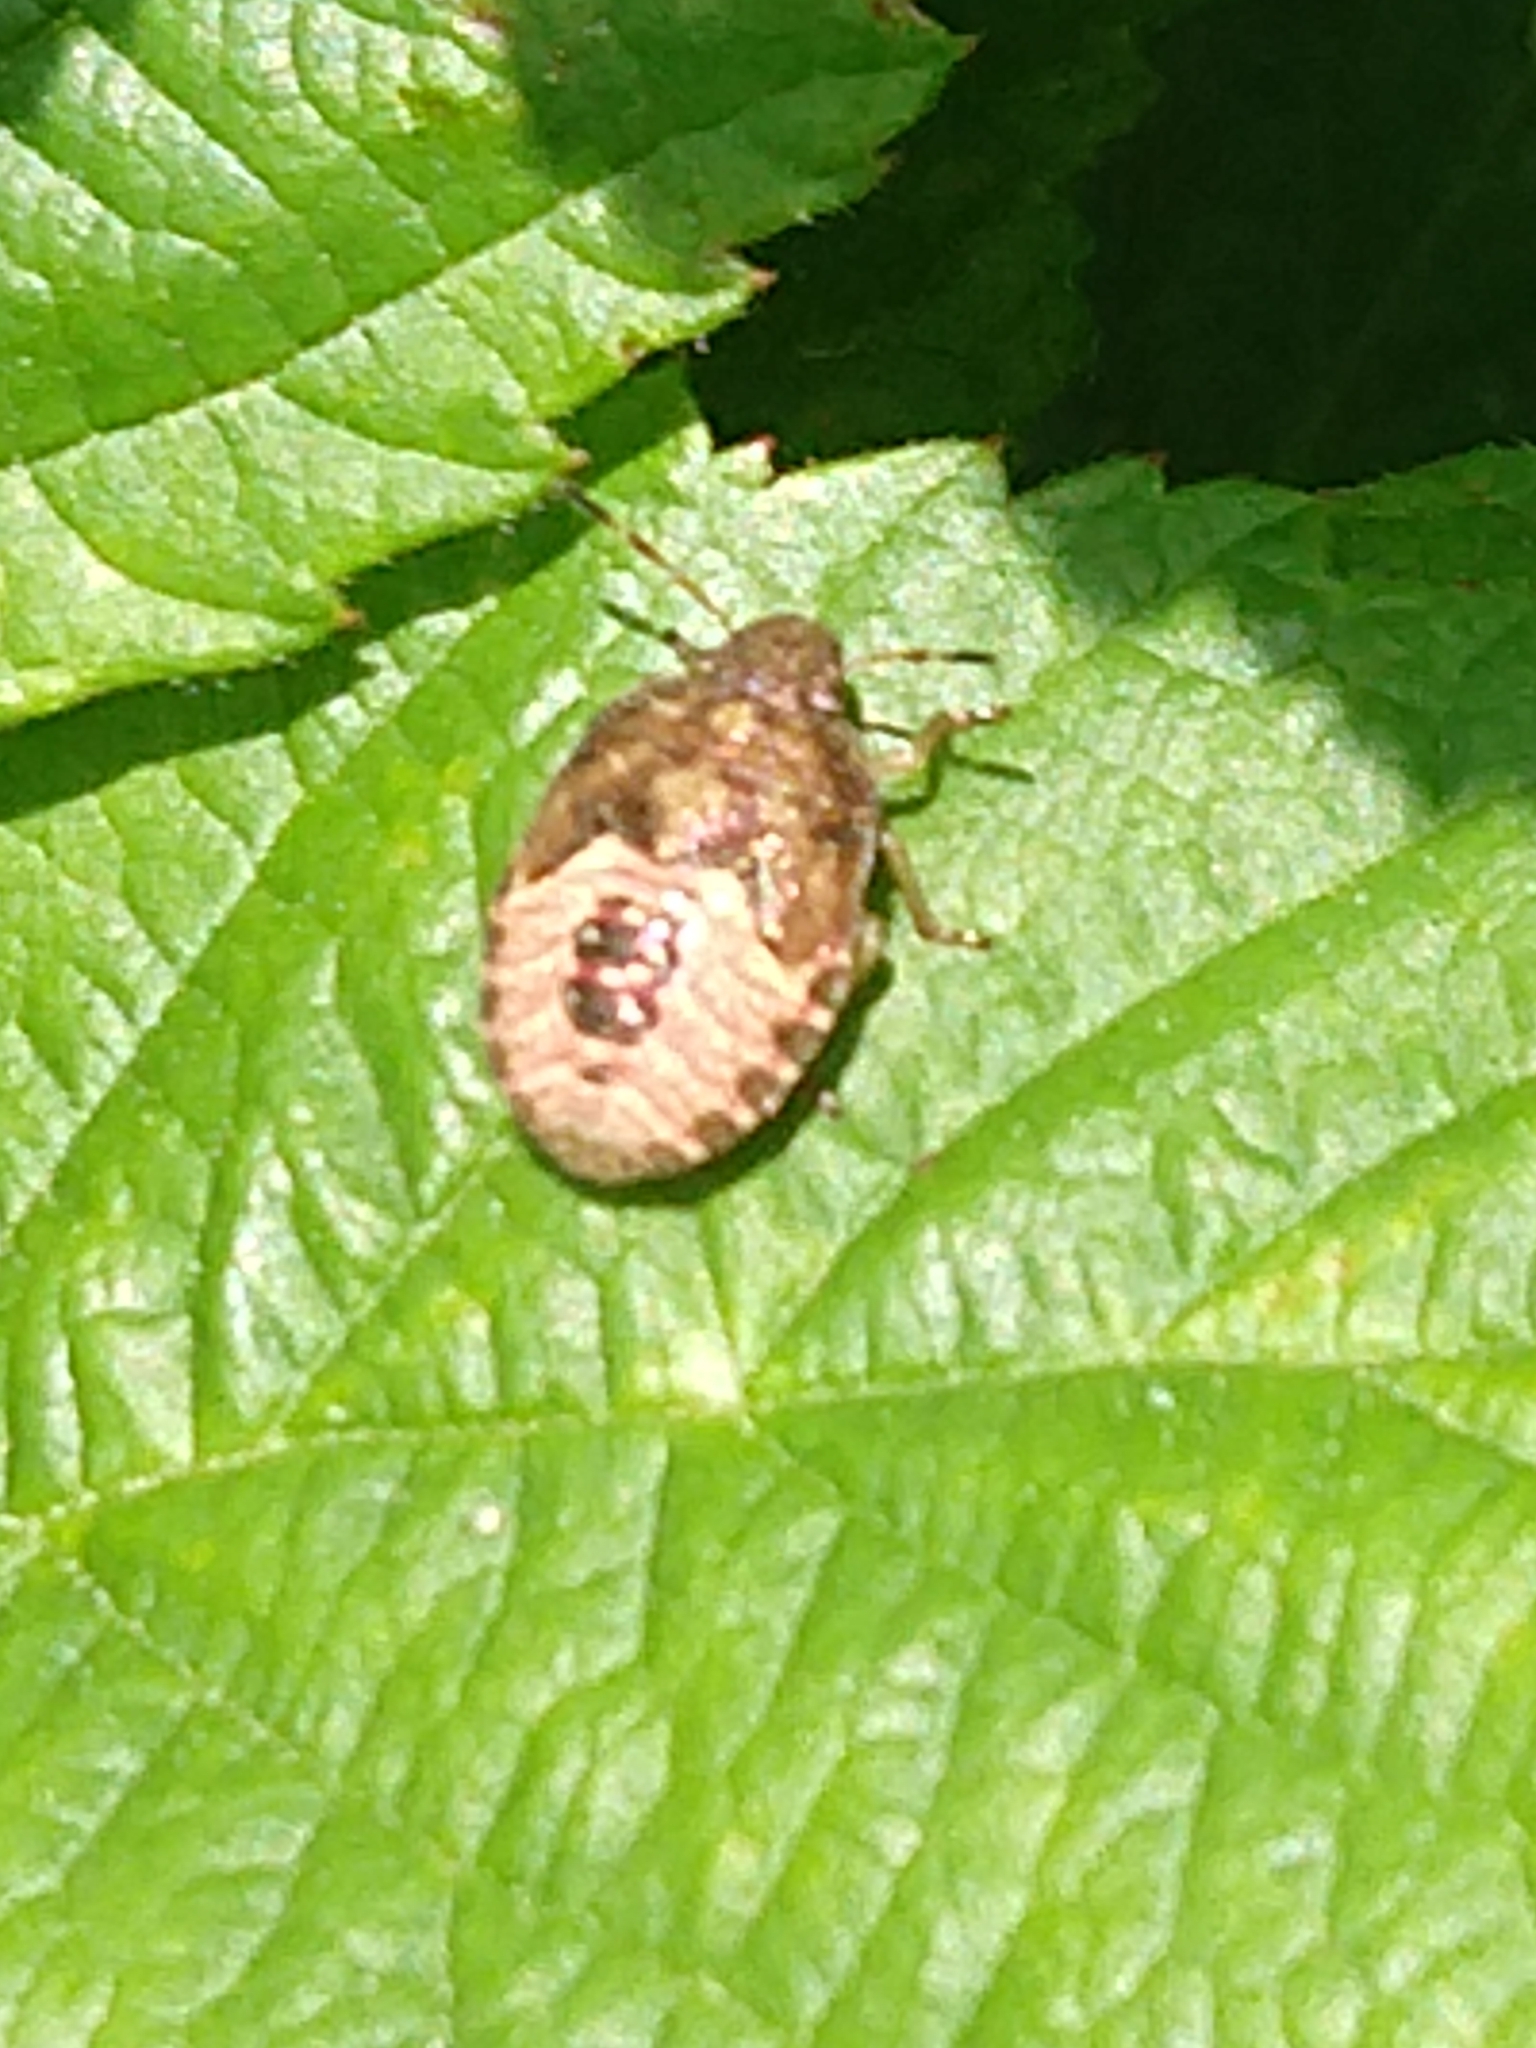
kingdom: Animalia
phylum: Arthropoda
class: Insecta
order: Hemiptera
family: Pentatomidae
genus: Holcostethus
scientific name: Holcostethus strictus
